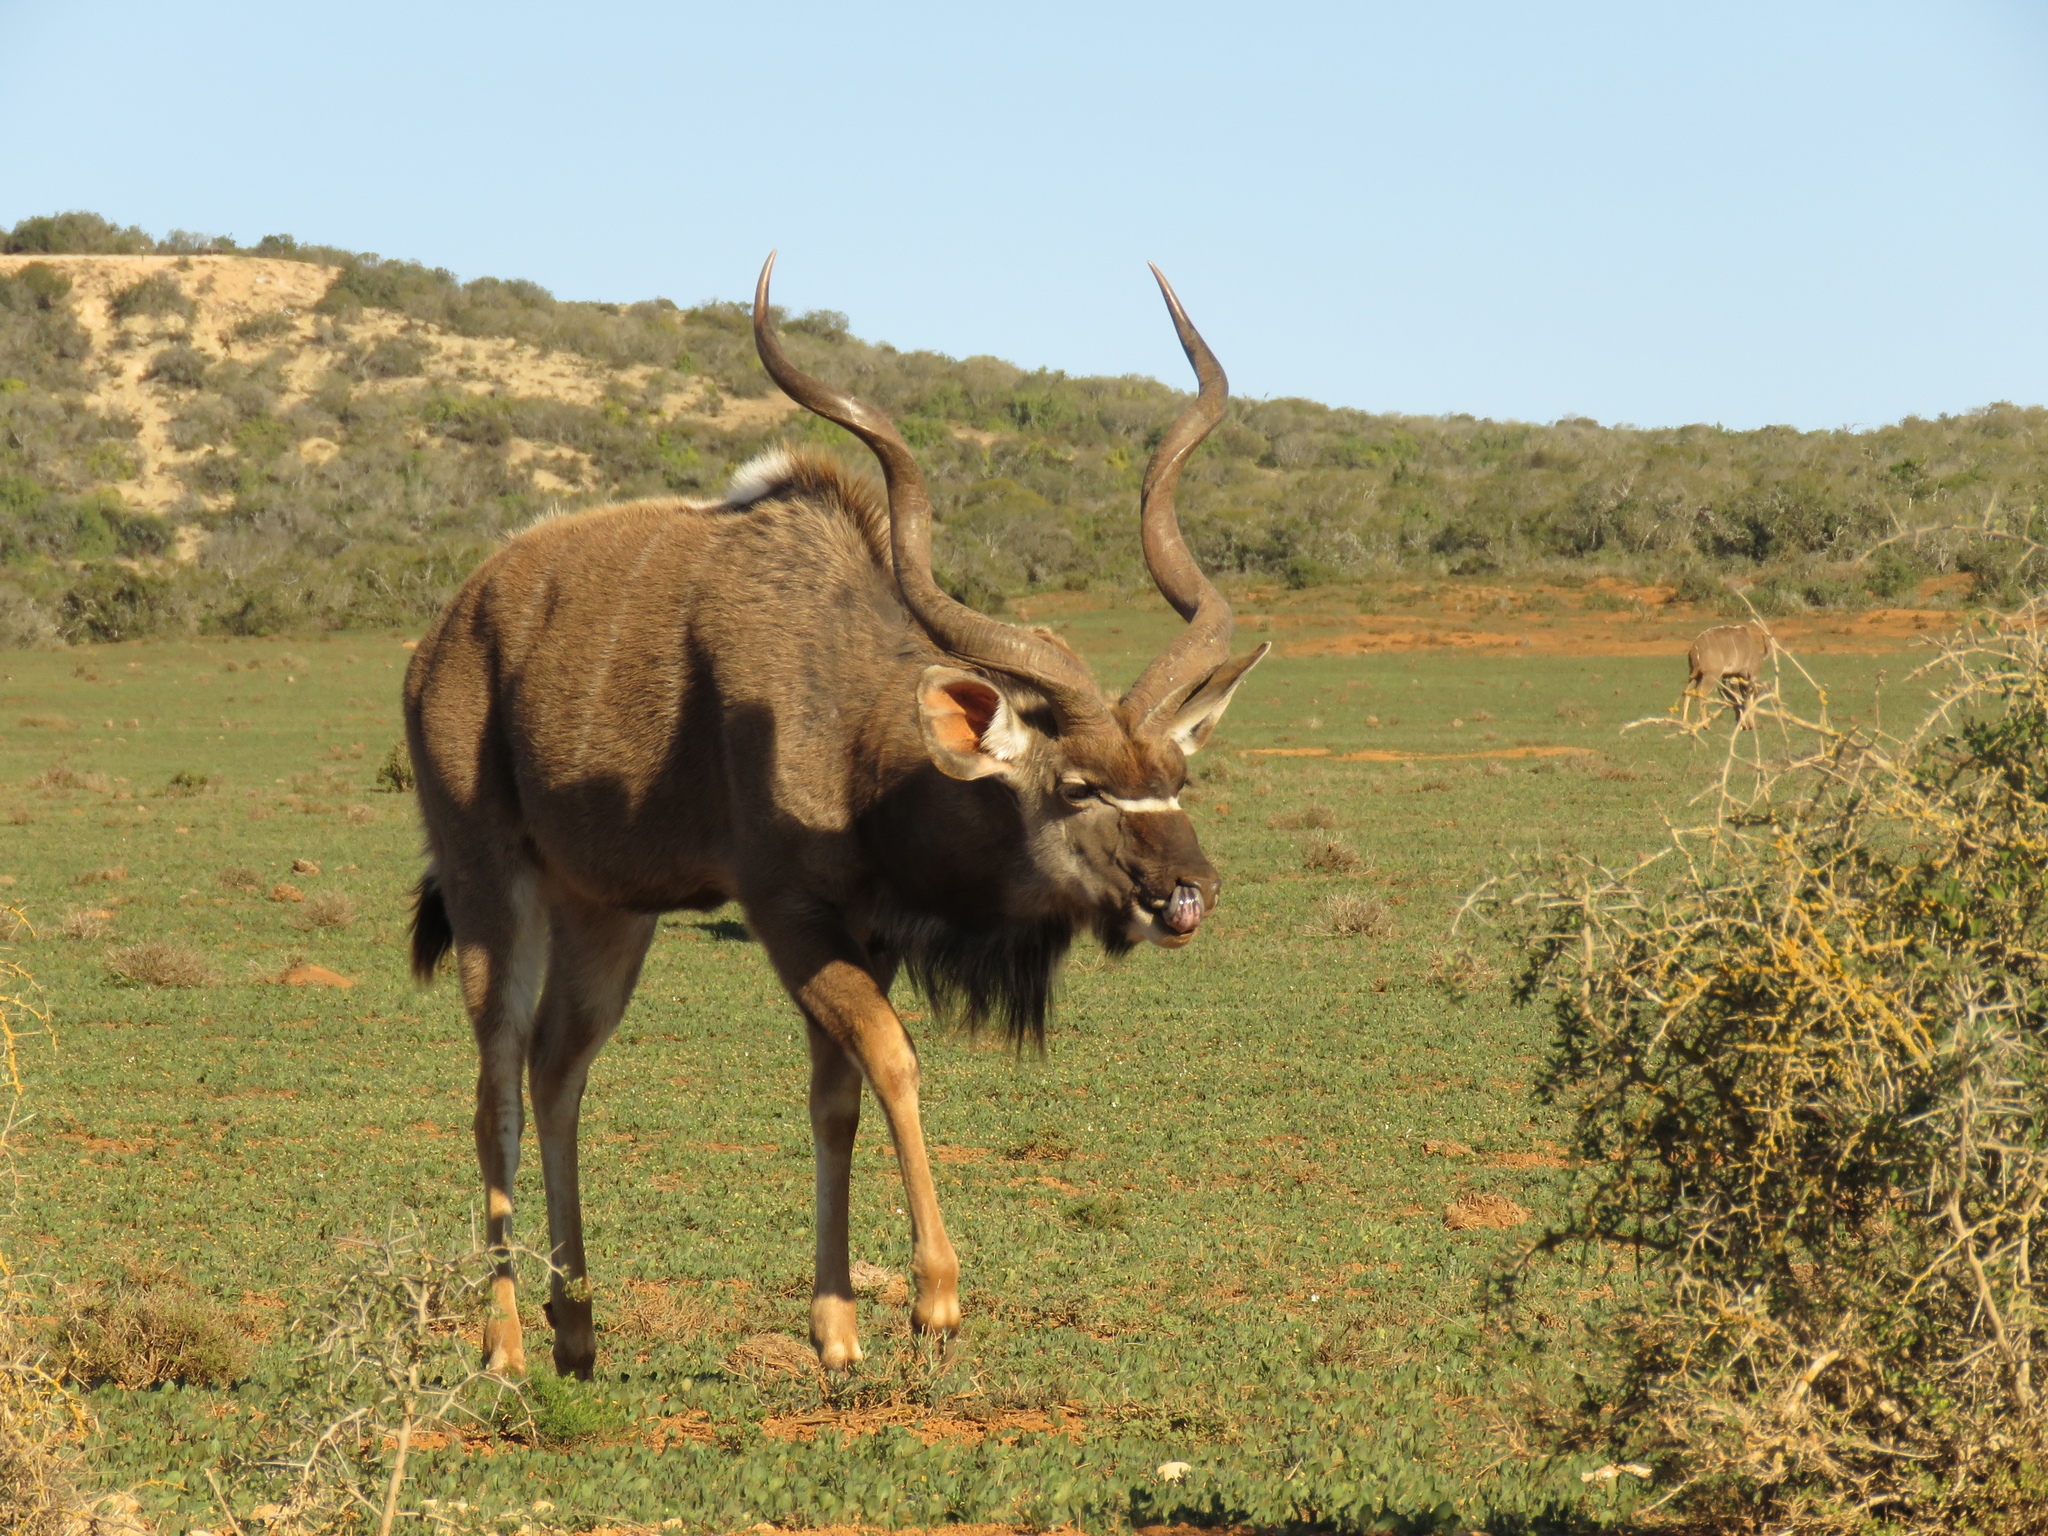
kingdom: Animalia
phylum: Chordata
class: Mammalia
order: Artiodactyla
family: Bovidae
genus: Tragelaphus
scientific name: Tragelaphus strepsiceros
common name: Greater kudu
